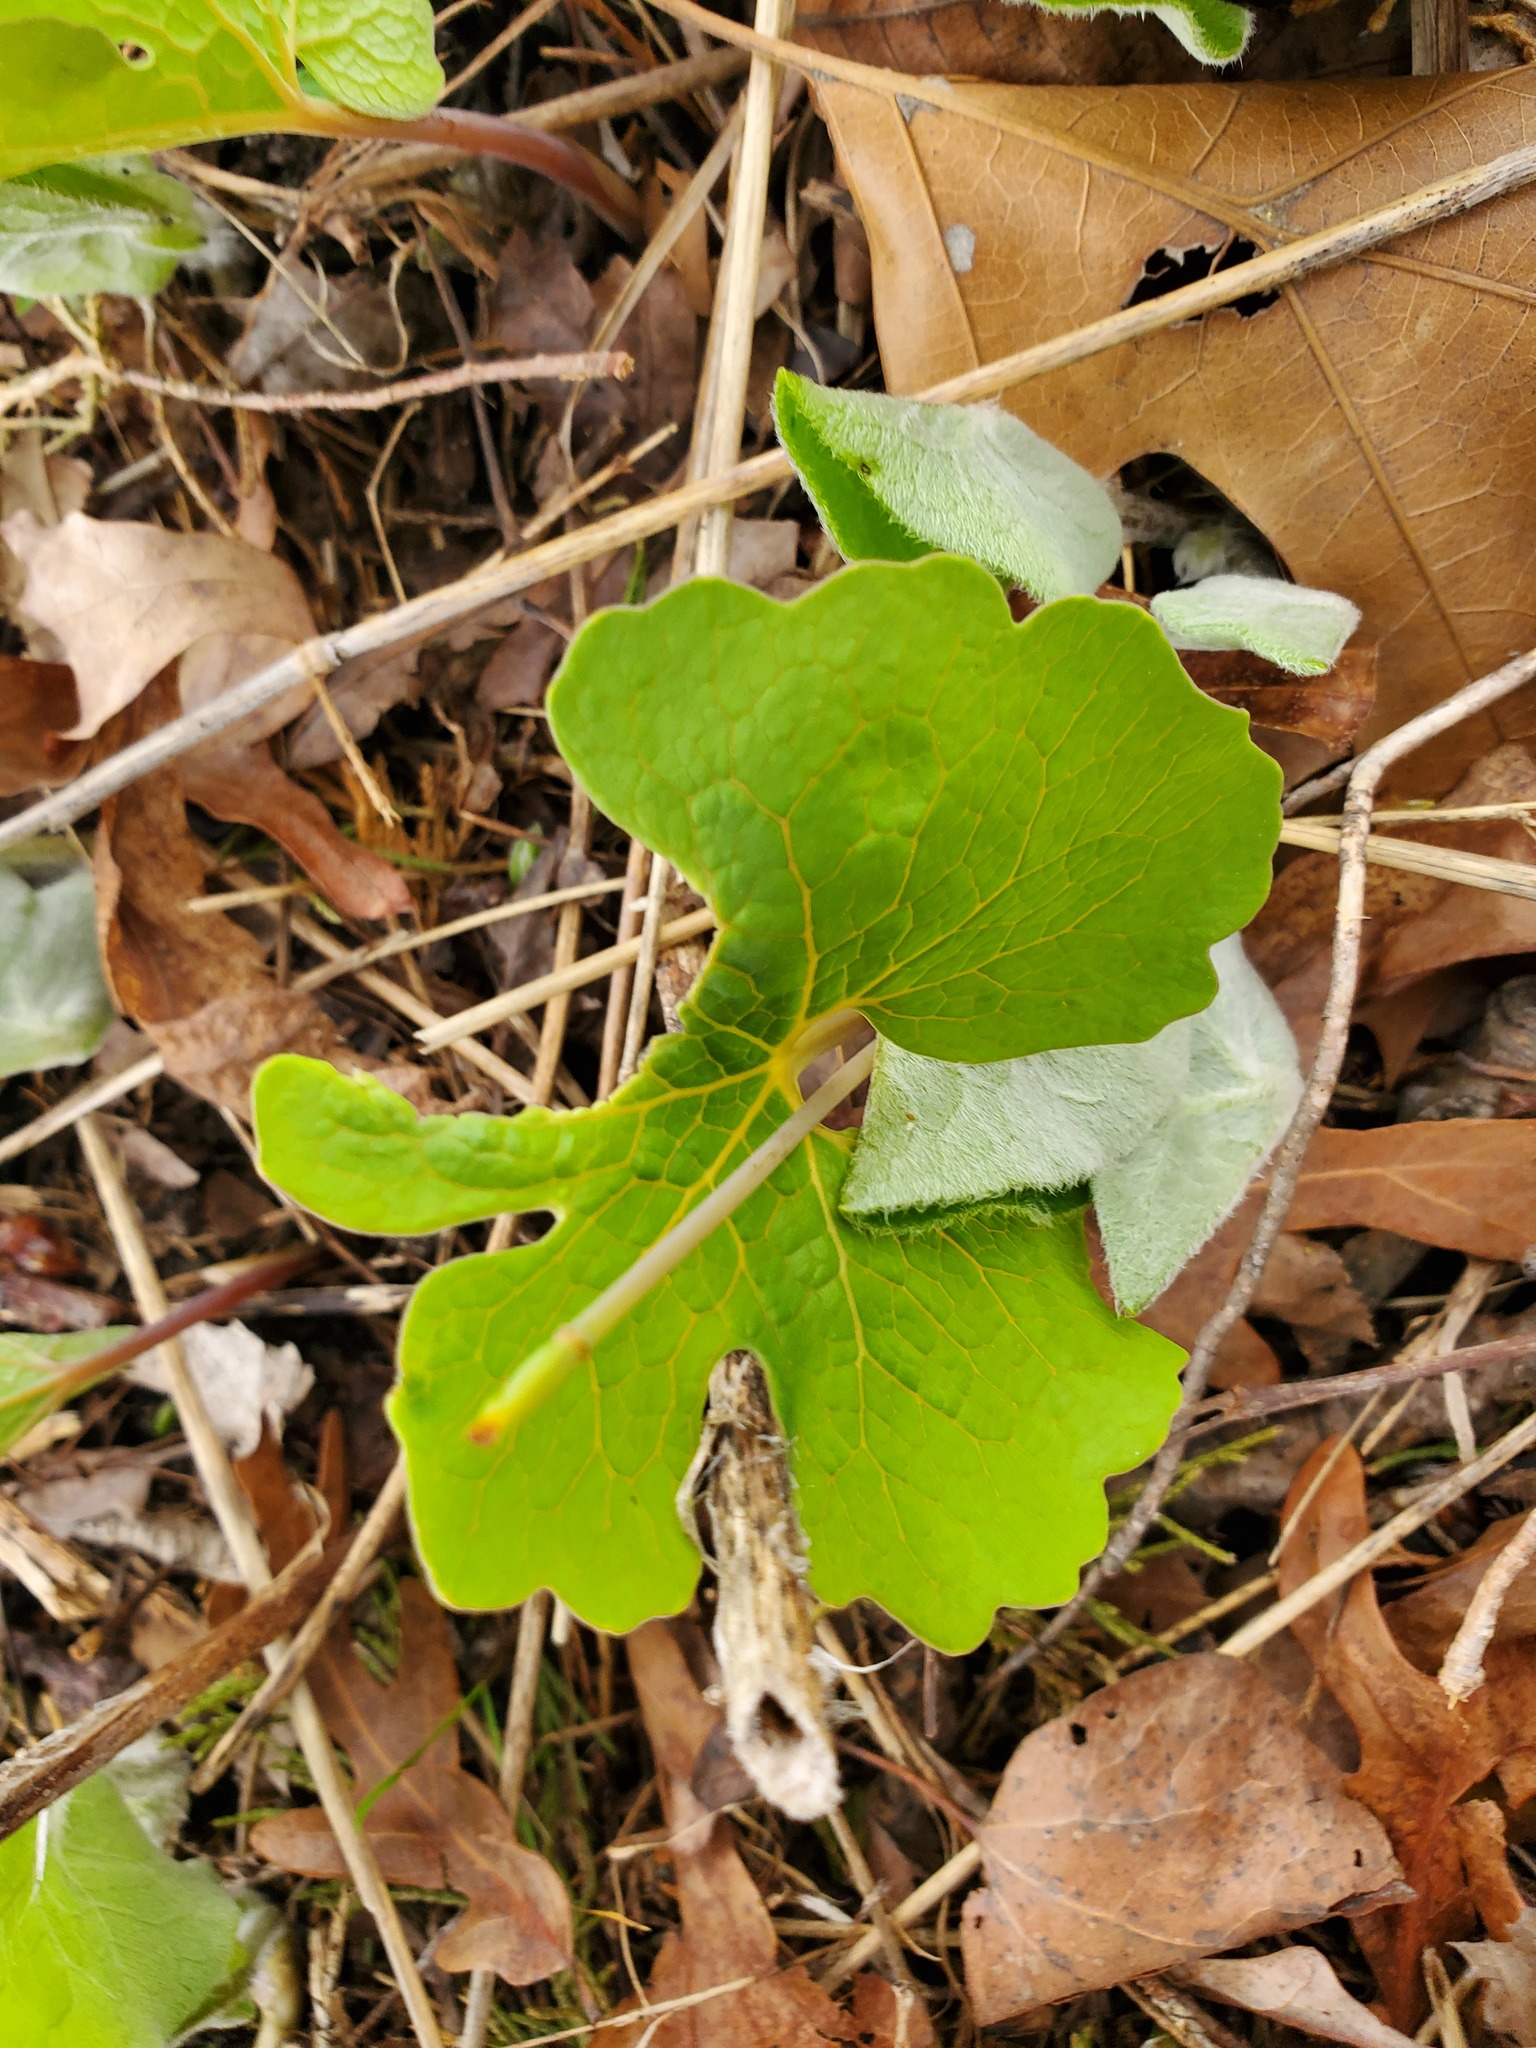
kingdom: Plantae
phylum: Tracheophyta
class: Magnoliopsida
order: Ranunculales
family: Papaveraceae
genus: Sanguinaria
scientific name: Sanguinaria canadensis
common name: Bloodroot
